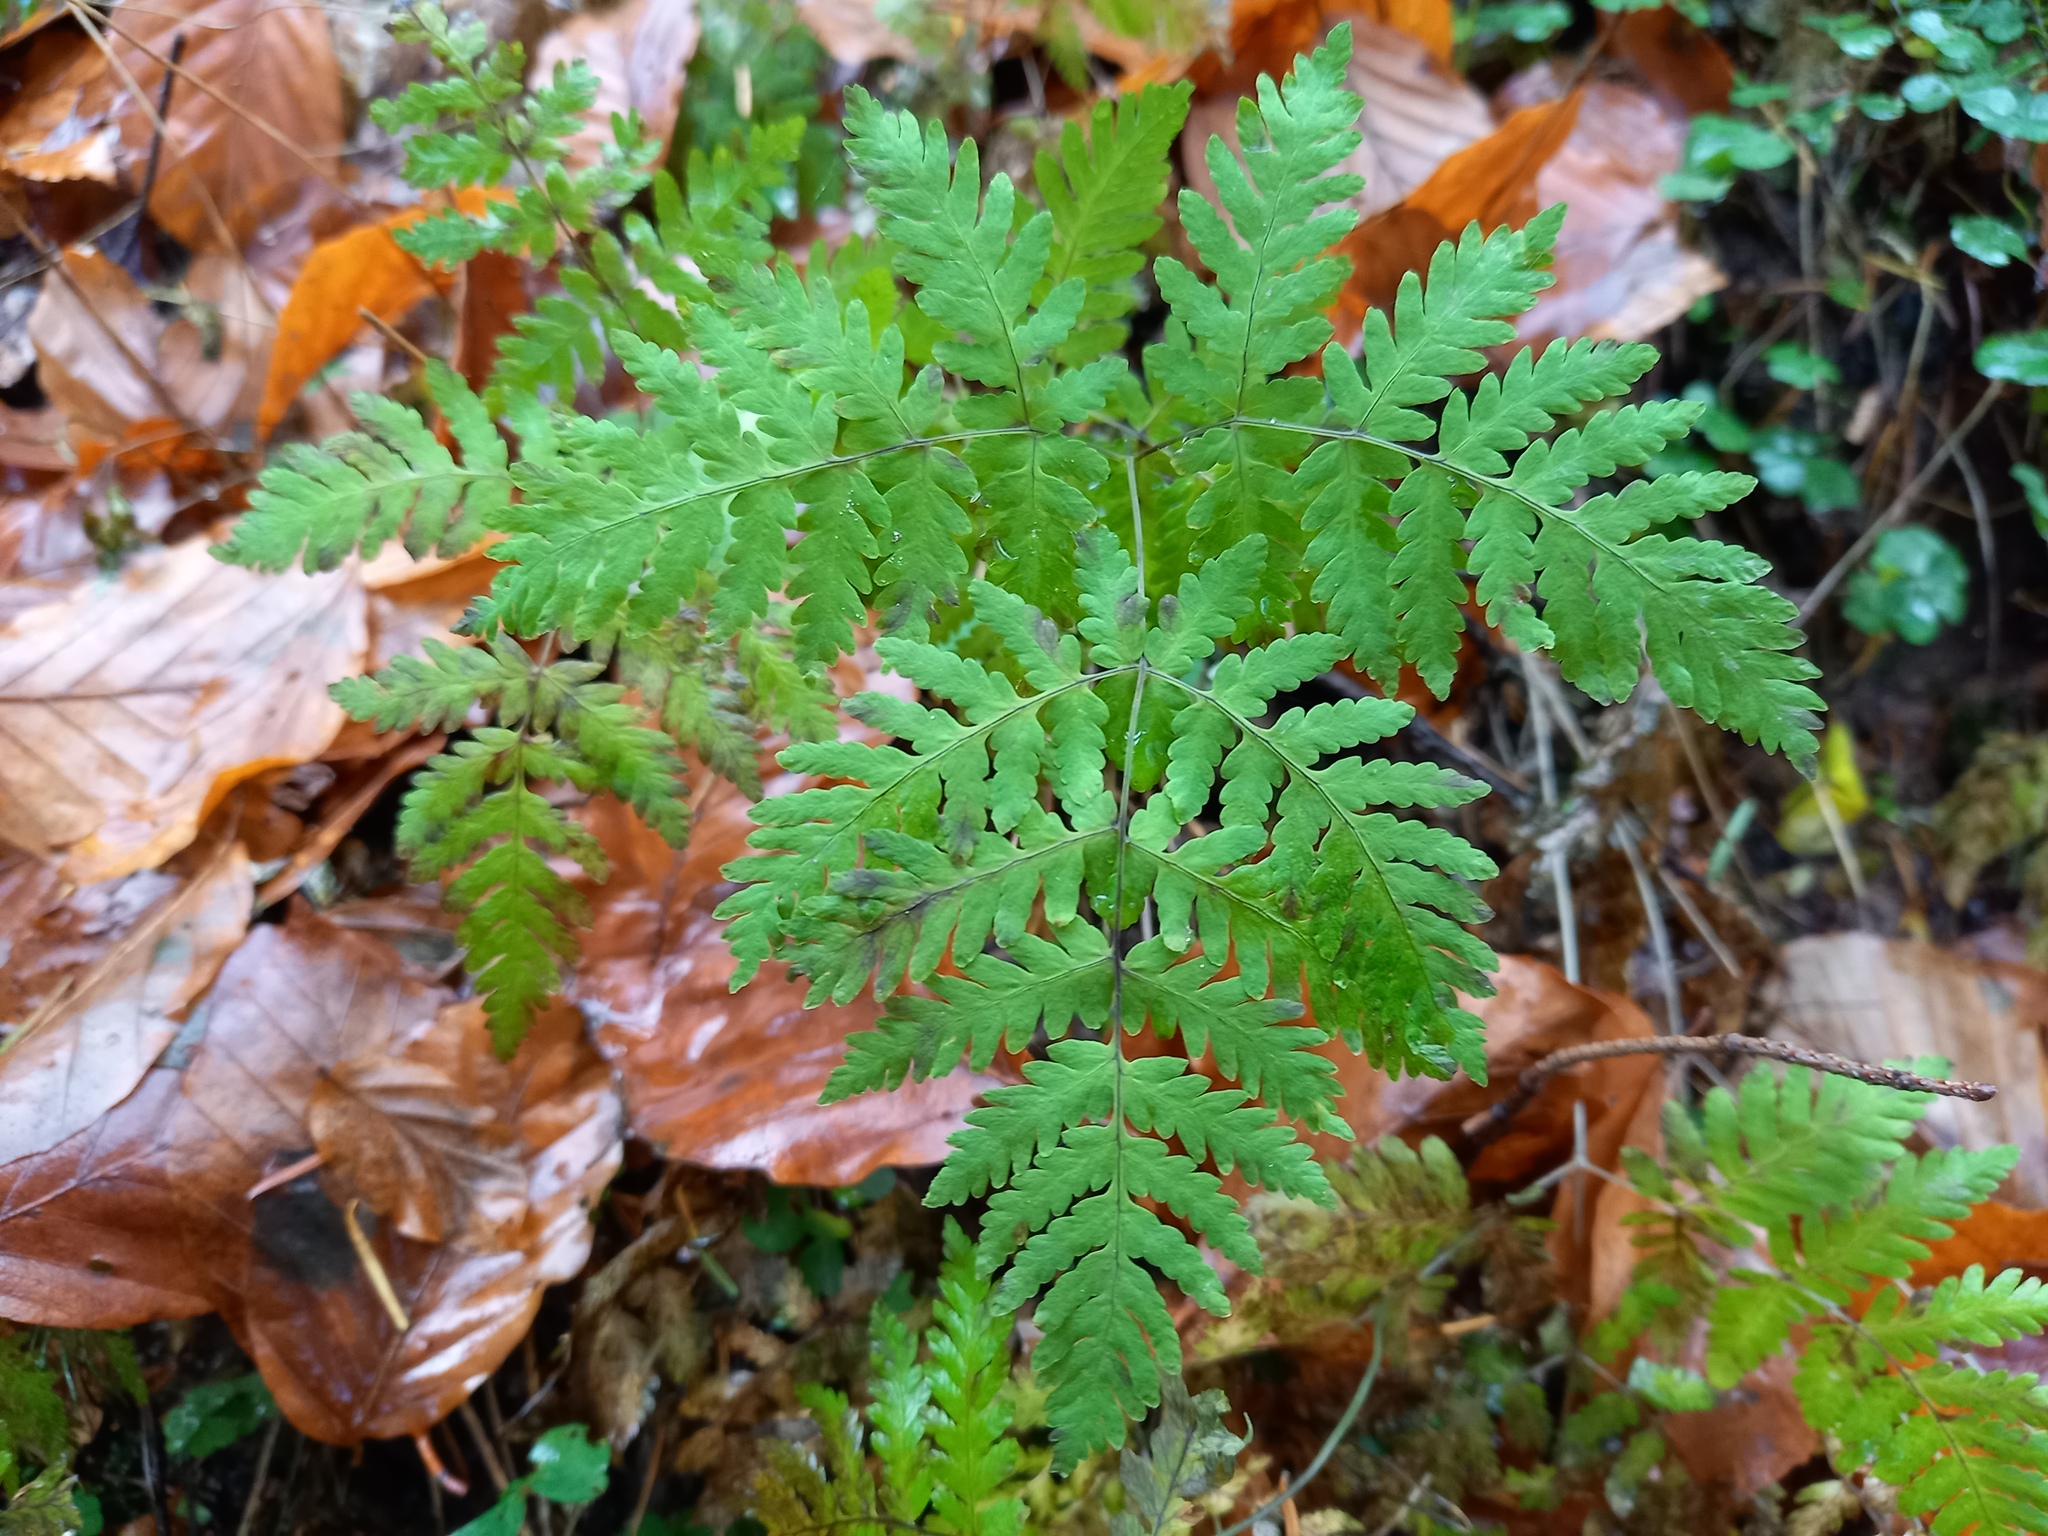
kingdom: Plantae
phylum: Tracheophyta
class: Polypodiopsida
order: Polypodiales
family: Cystopteridaceae
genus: Gymnocarpium
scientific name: Gymnocarpium dryopteris
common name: Oak fern
